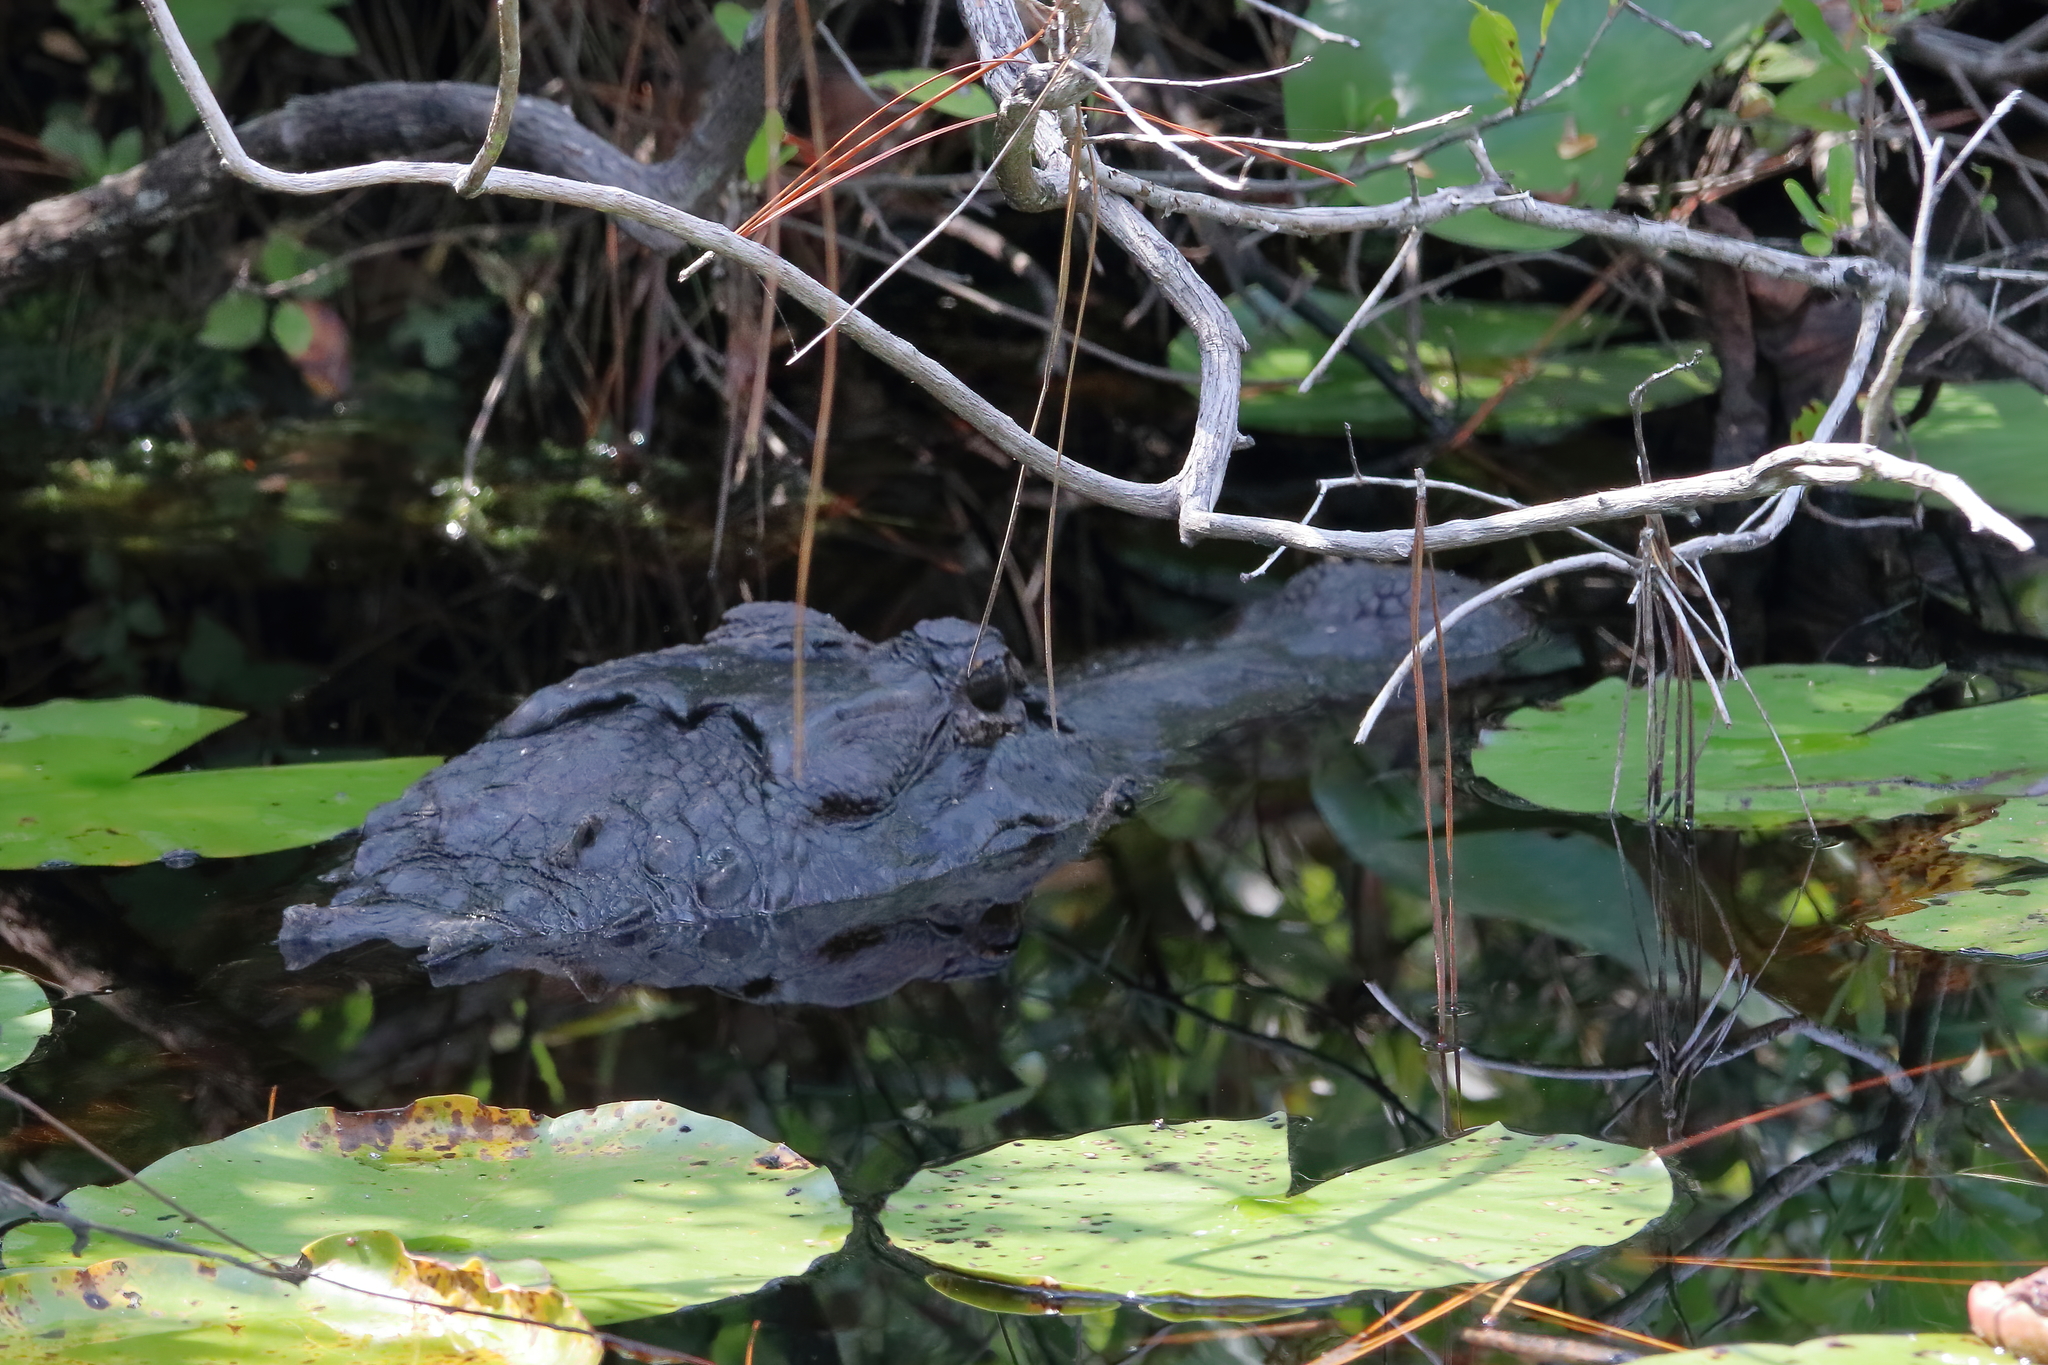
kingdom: Animalia
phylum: Chordata
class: Crocodylia
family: Alligatoridae
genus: Alligator
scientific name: Alligator mississippiensis
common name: American alligator
